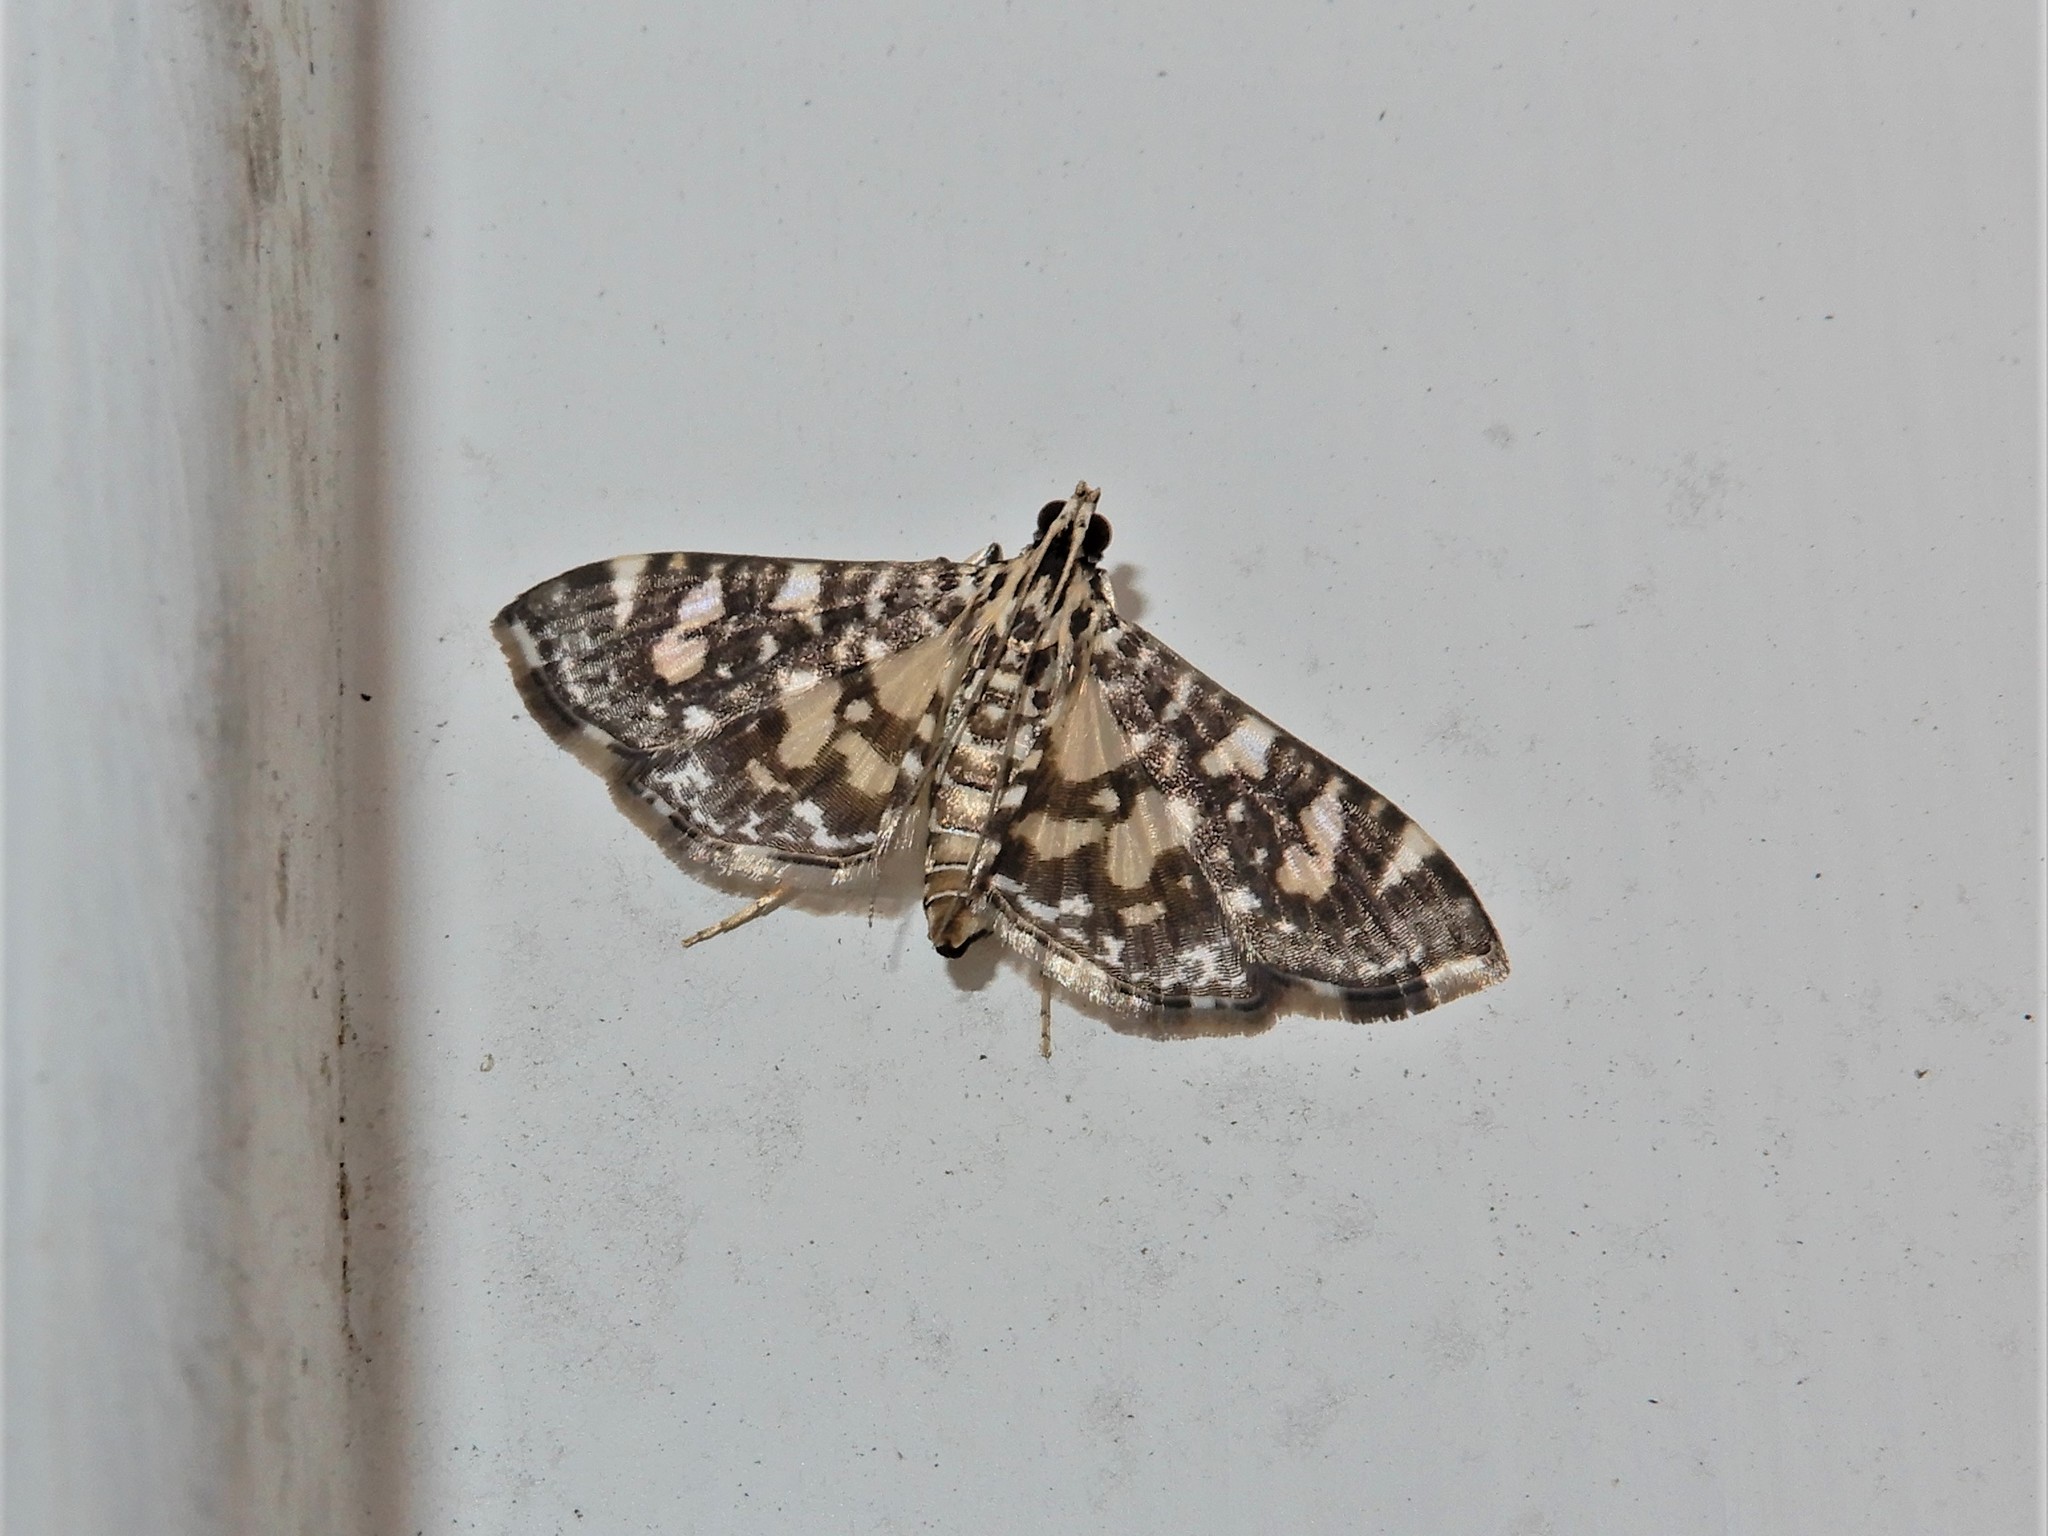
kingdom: Animalia
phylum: Arthropoda
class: Insecta
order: Lepidoptera
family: Crambidae
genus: Glyphodes
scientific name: Glyphodes onychinalis
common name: Swan plant moth
